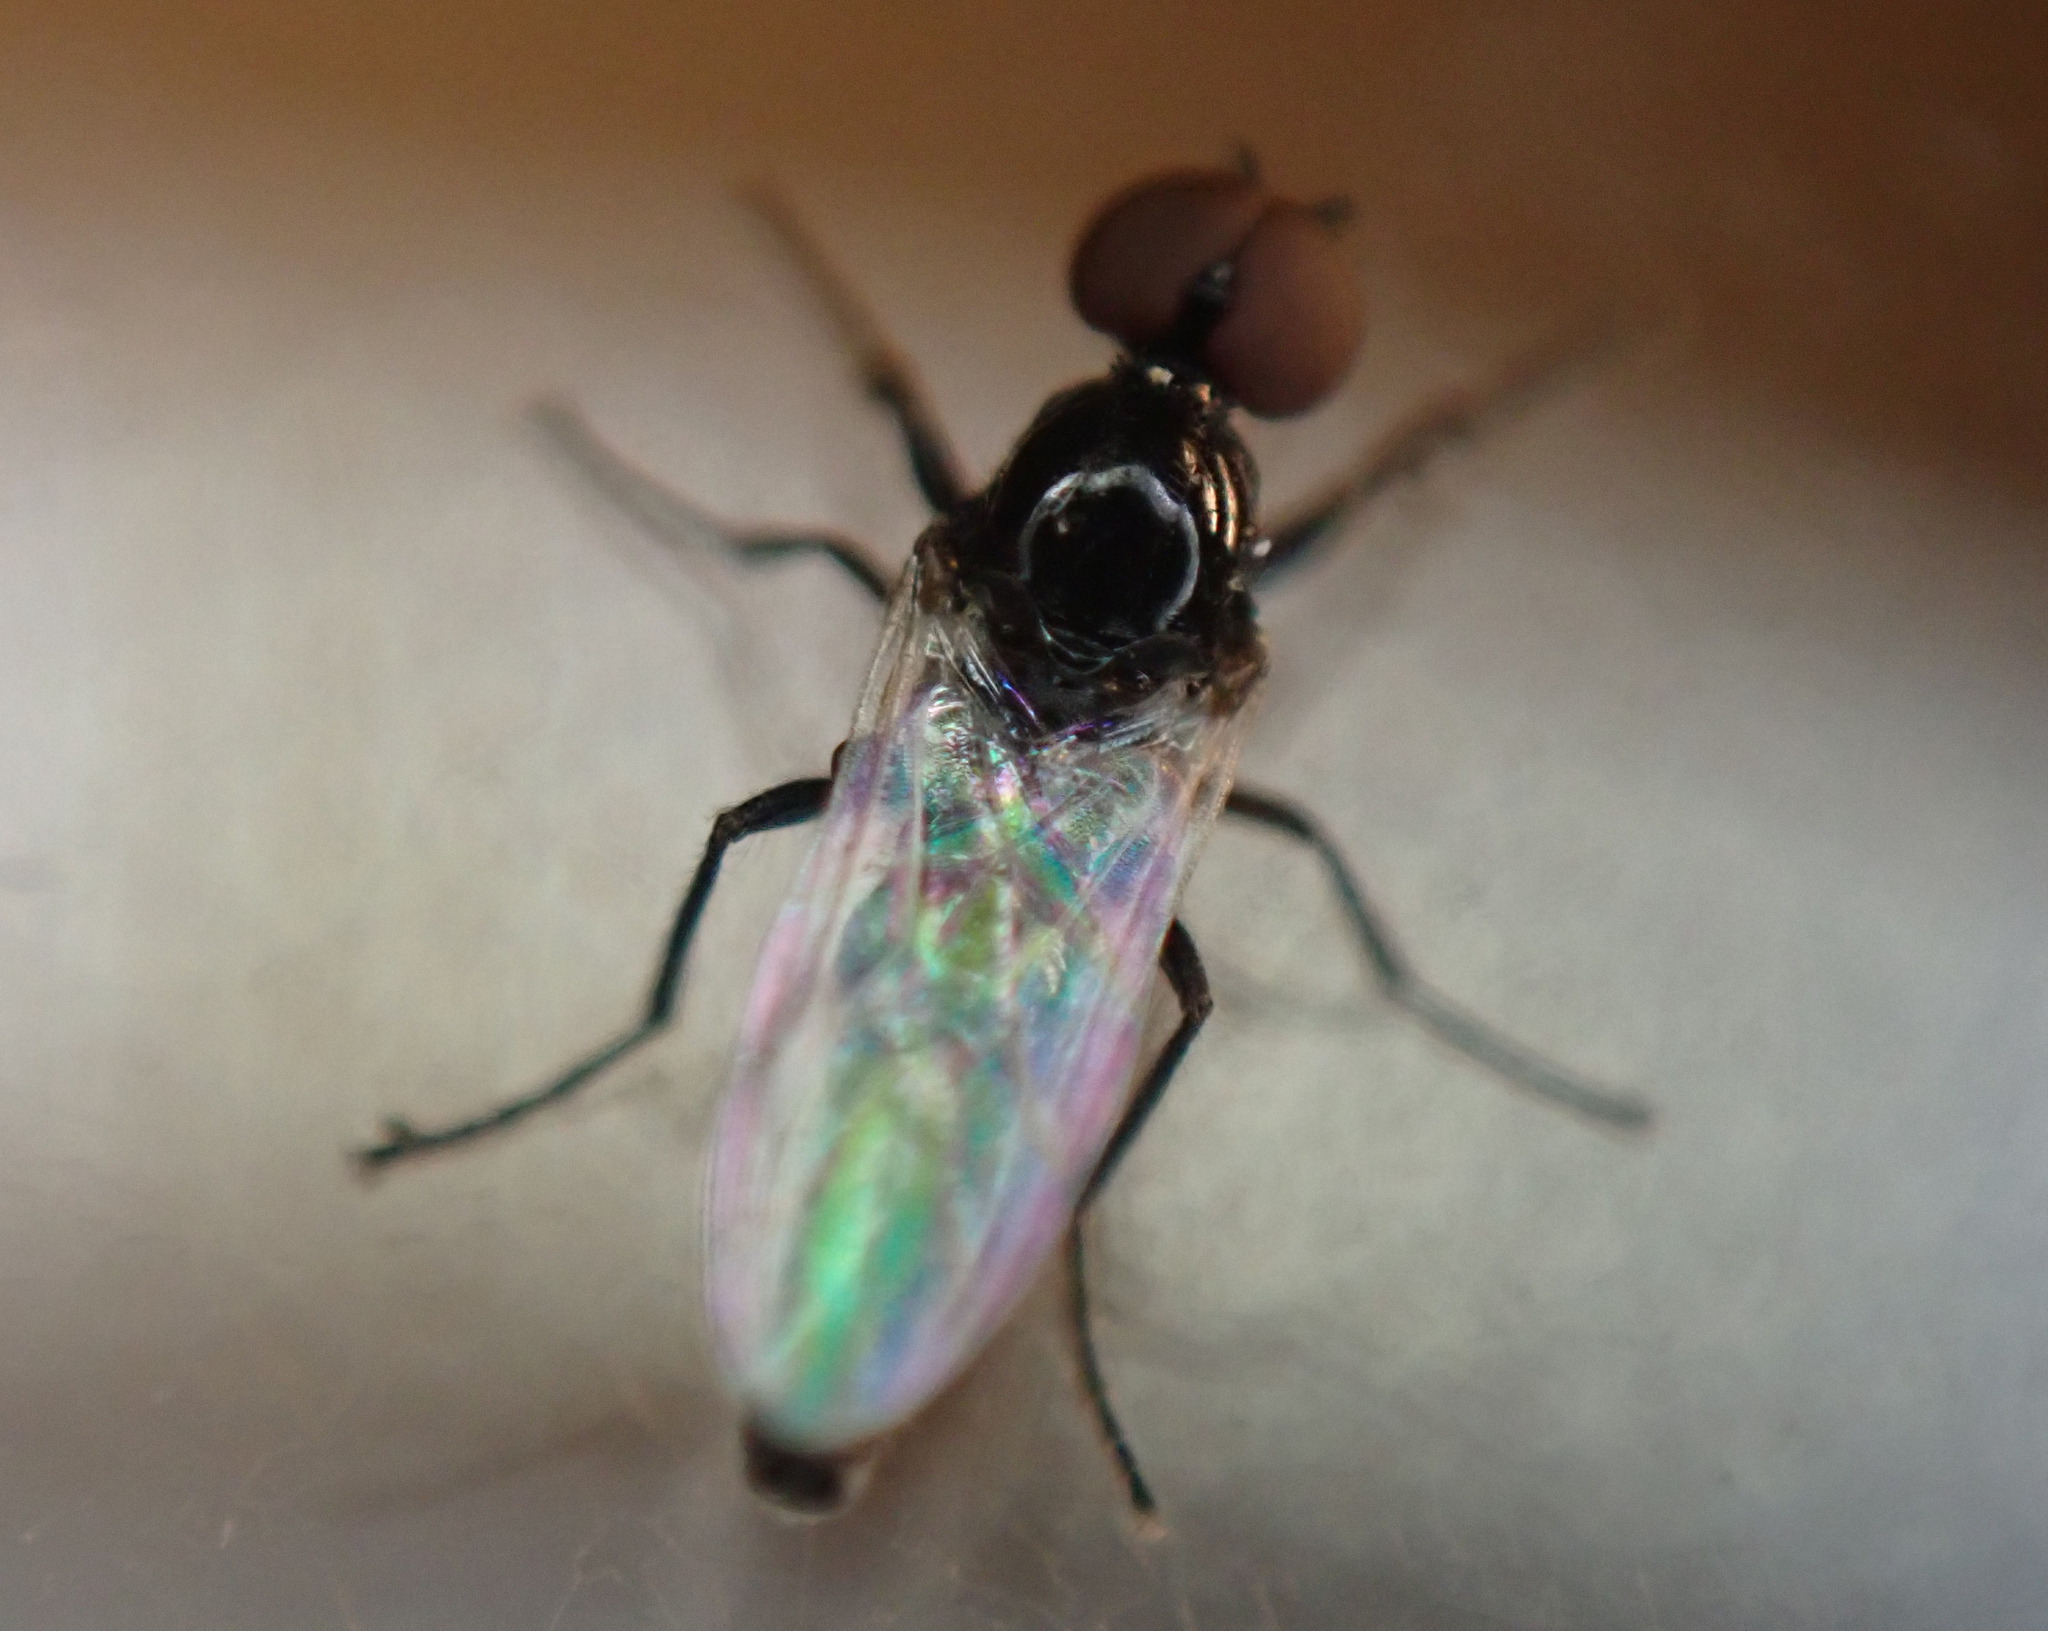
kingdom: Animalia
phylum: Arthropoda
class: Insecta
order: Diptera
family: Bibionidae
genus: Dilophus
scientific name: Dilophus
